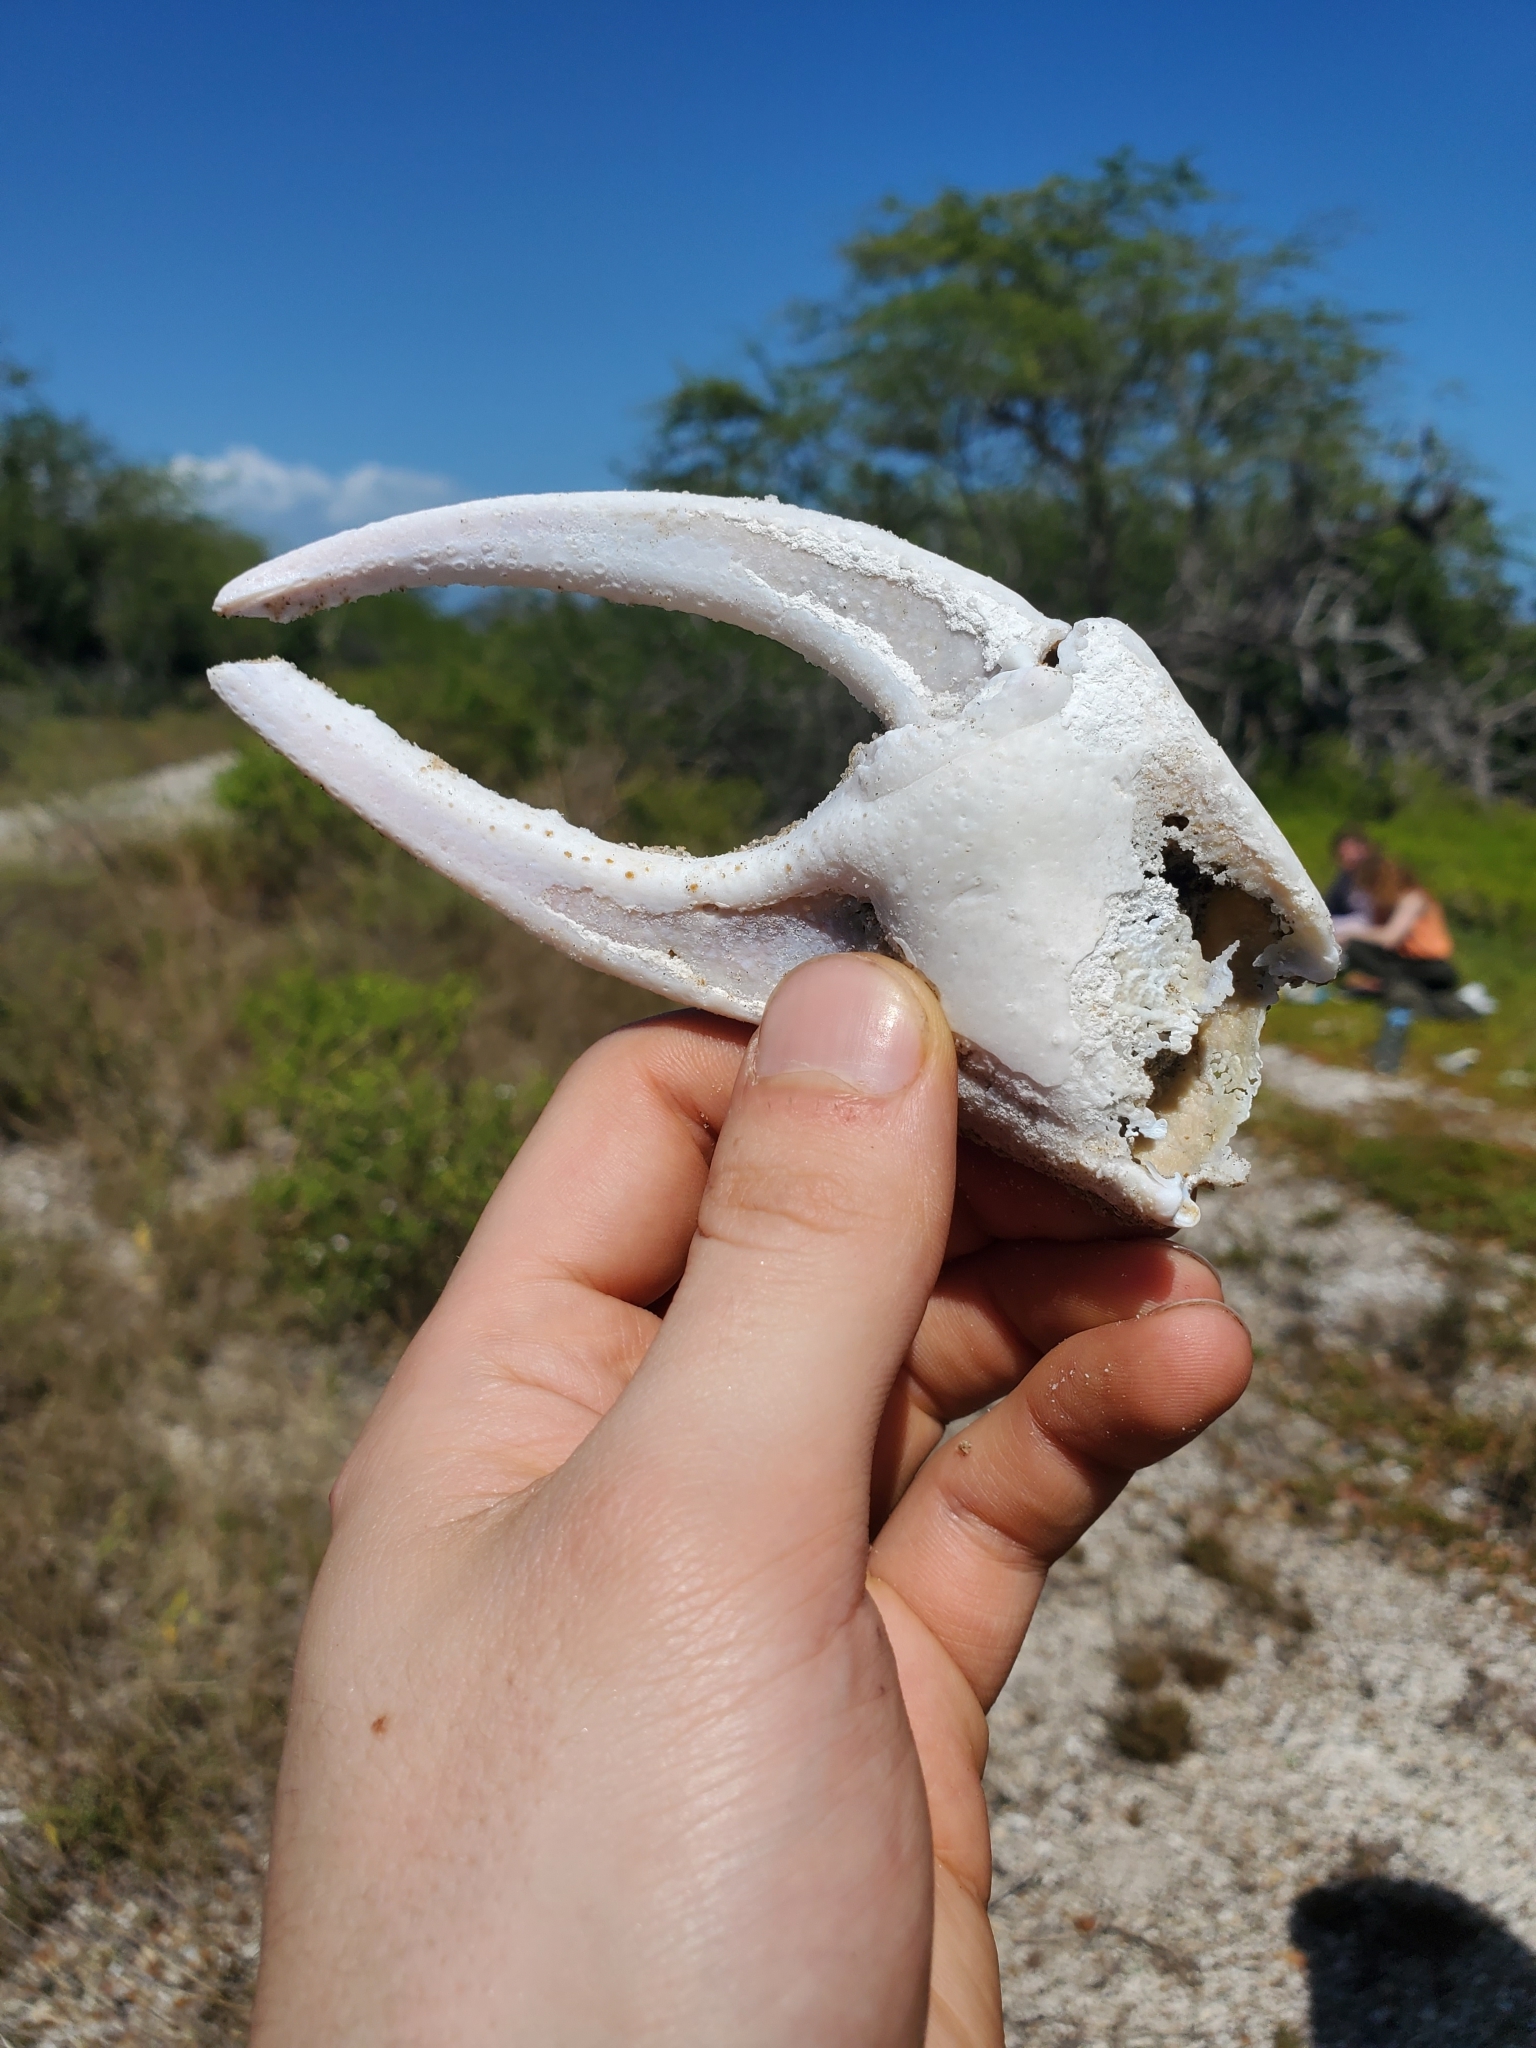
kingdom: Animalia
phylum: Arthropoda
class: Malacostraca
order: Decapoda
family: Gecarcinidae
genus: Cardisoma
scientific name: Cardisoma guanhumi
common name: Great land crab
